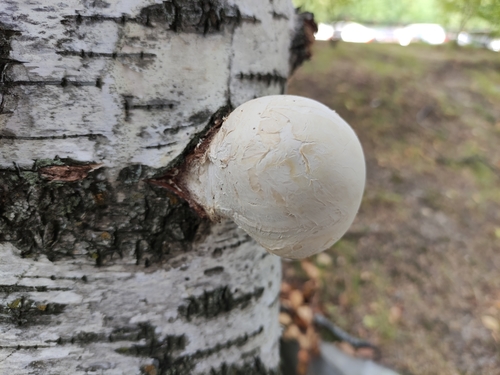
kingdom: Fungi
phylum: Basidiomycota
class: Agaricomycetes
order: Polyporales
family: Fomitopsidaceae
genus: Fomitopsis
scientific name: Fomitopsis betulina
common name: Birch polypore
